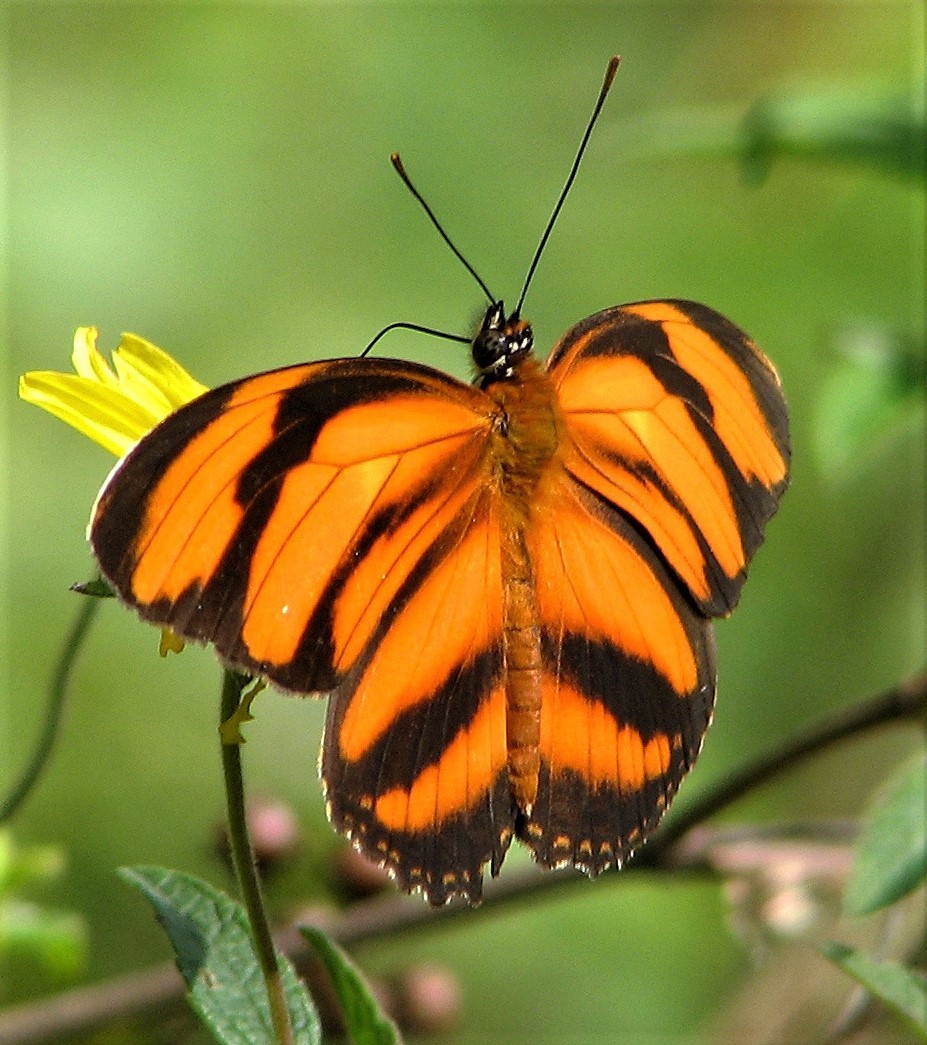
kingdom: Animalia
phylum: Arthropoda
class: Insecta
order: Lepidoptera
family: Nymphalidae
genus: Dryadula
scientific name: Dryadula phaetusa
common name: Banded orange heliconian
